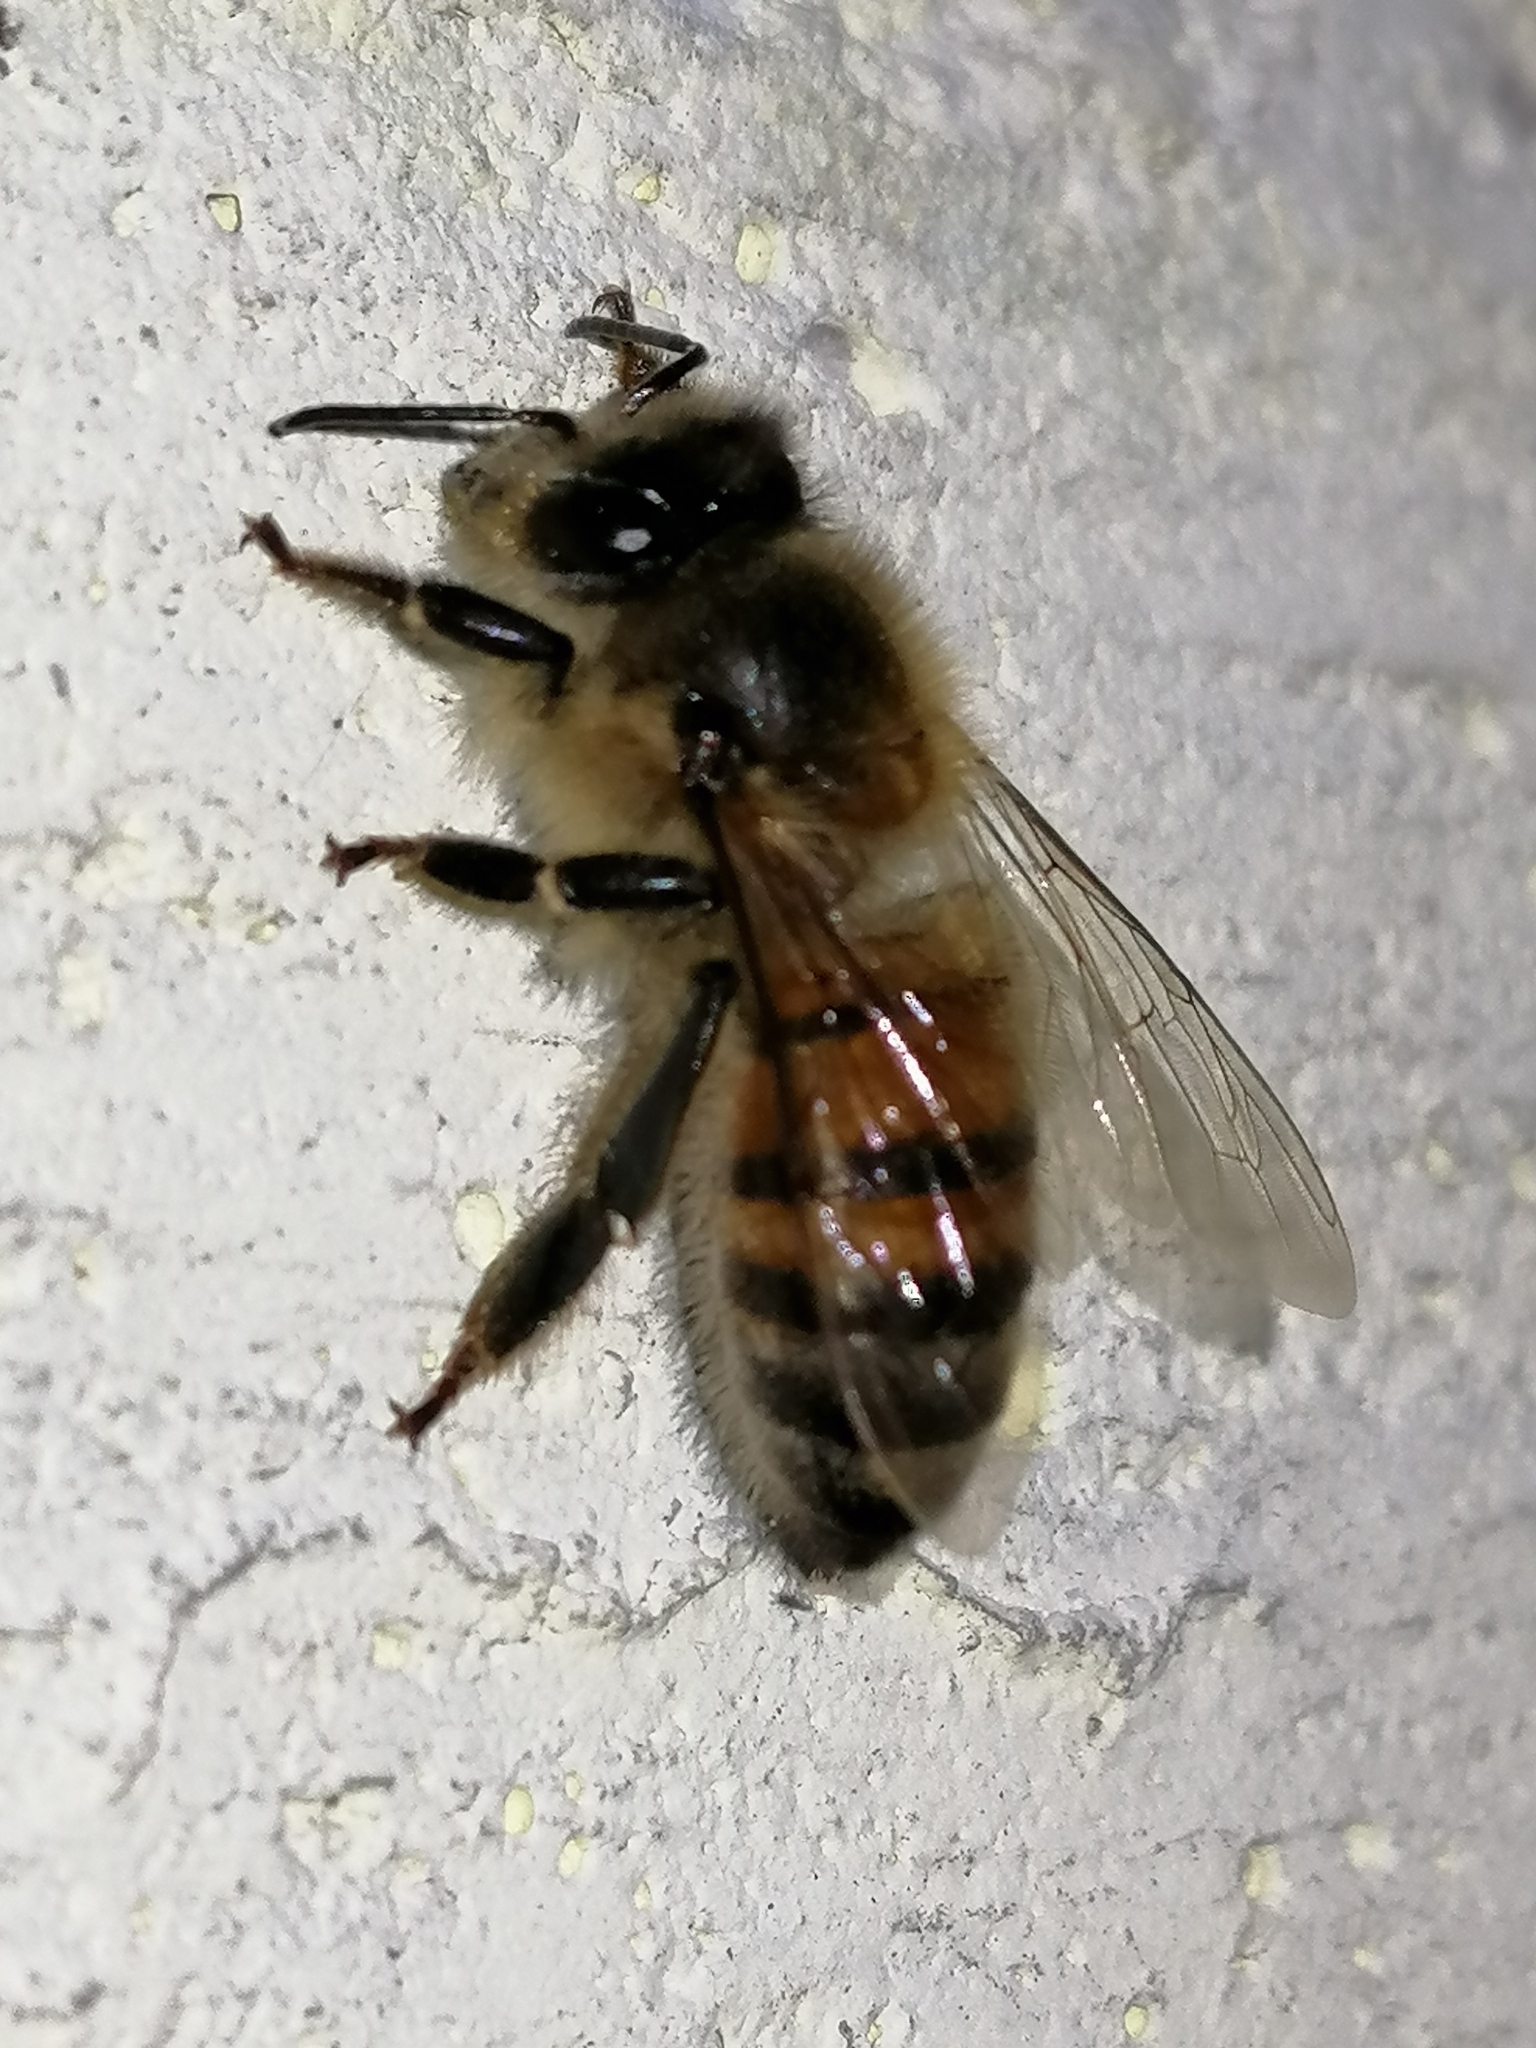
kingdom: Animalia
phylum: Arthropoda
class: Insecta
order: Hymenoptera
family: Apidae
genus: Apis
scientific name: Apis mellifera
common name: Honey bee
